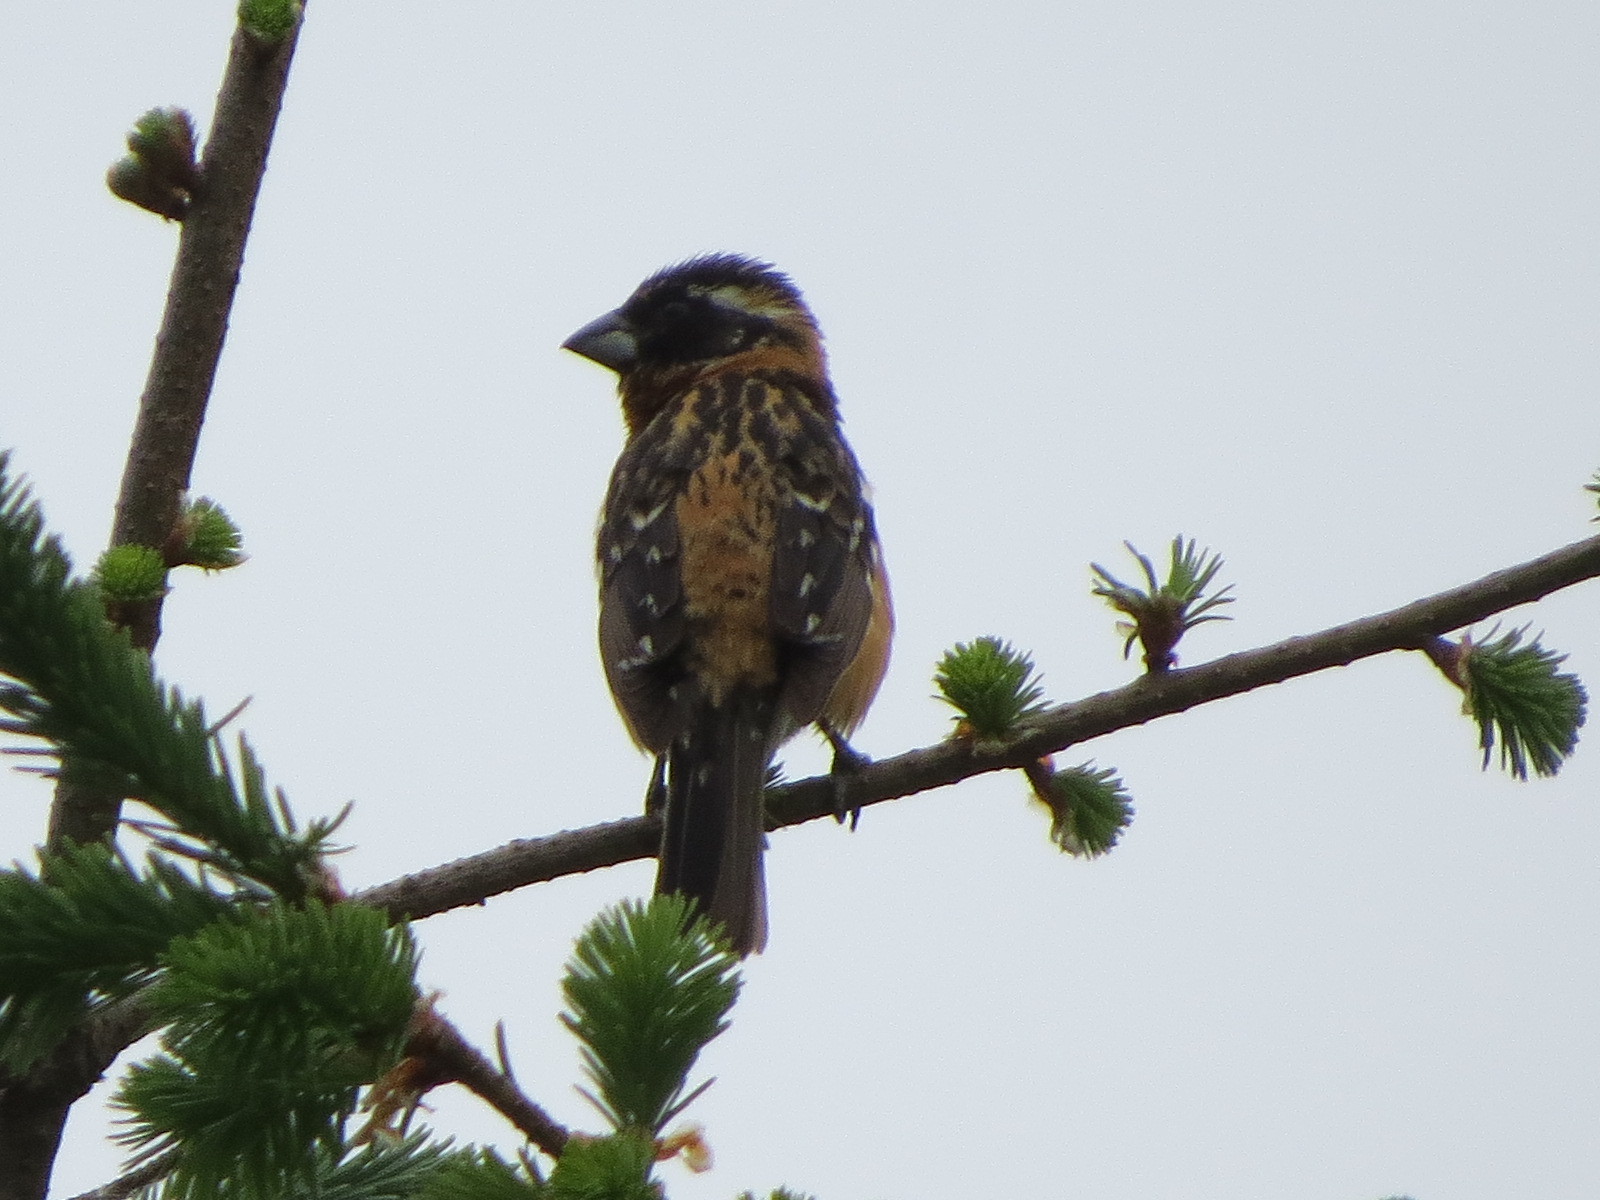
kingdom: Animalia
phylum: Chordata
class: Aves
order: Passeriformes
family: Cardinalidae
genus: Pheucticus
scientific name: Pheucticus melanocephalus
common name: Black-headed grosbeak
